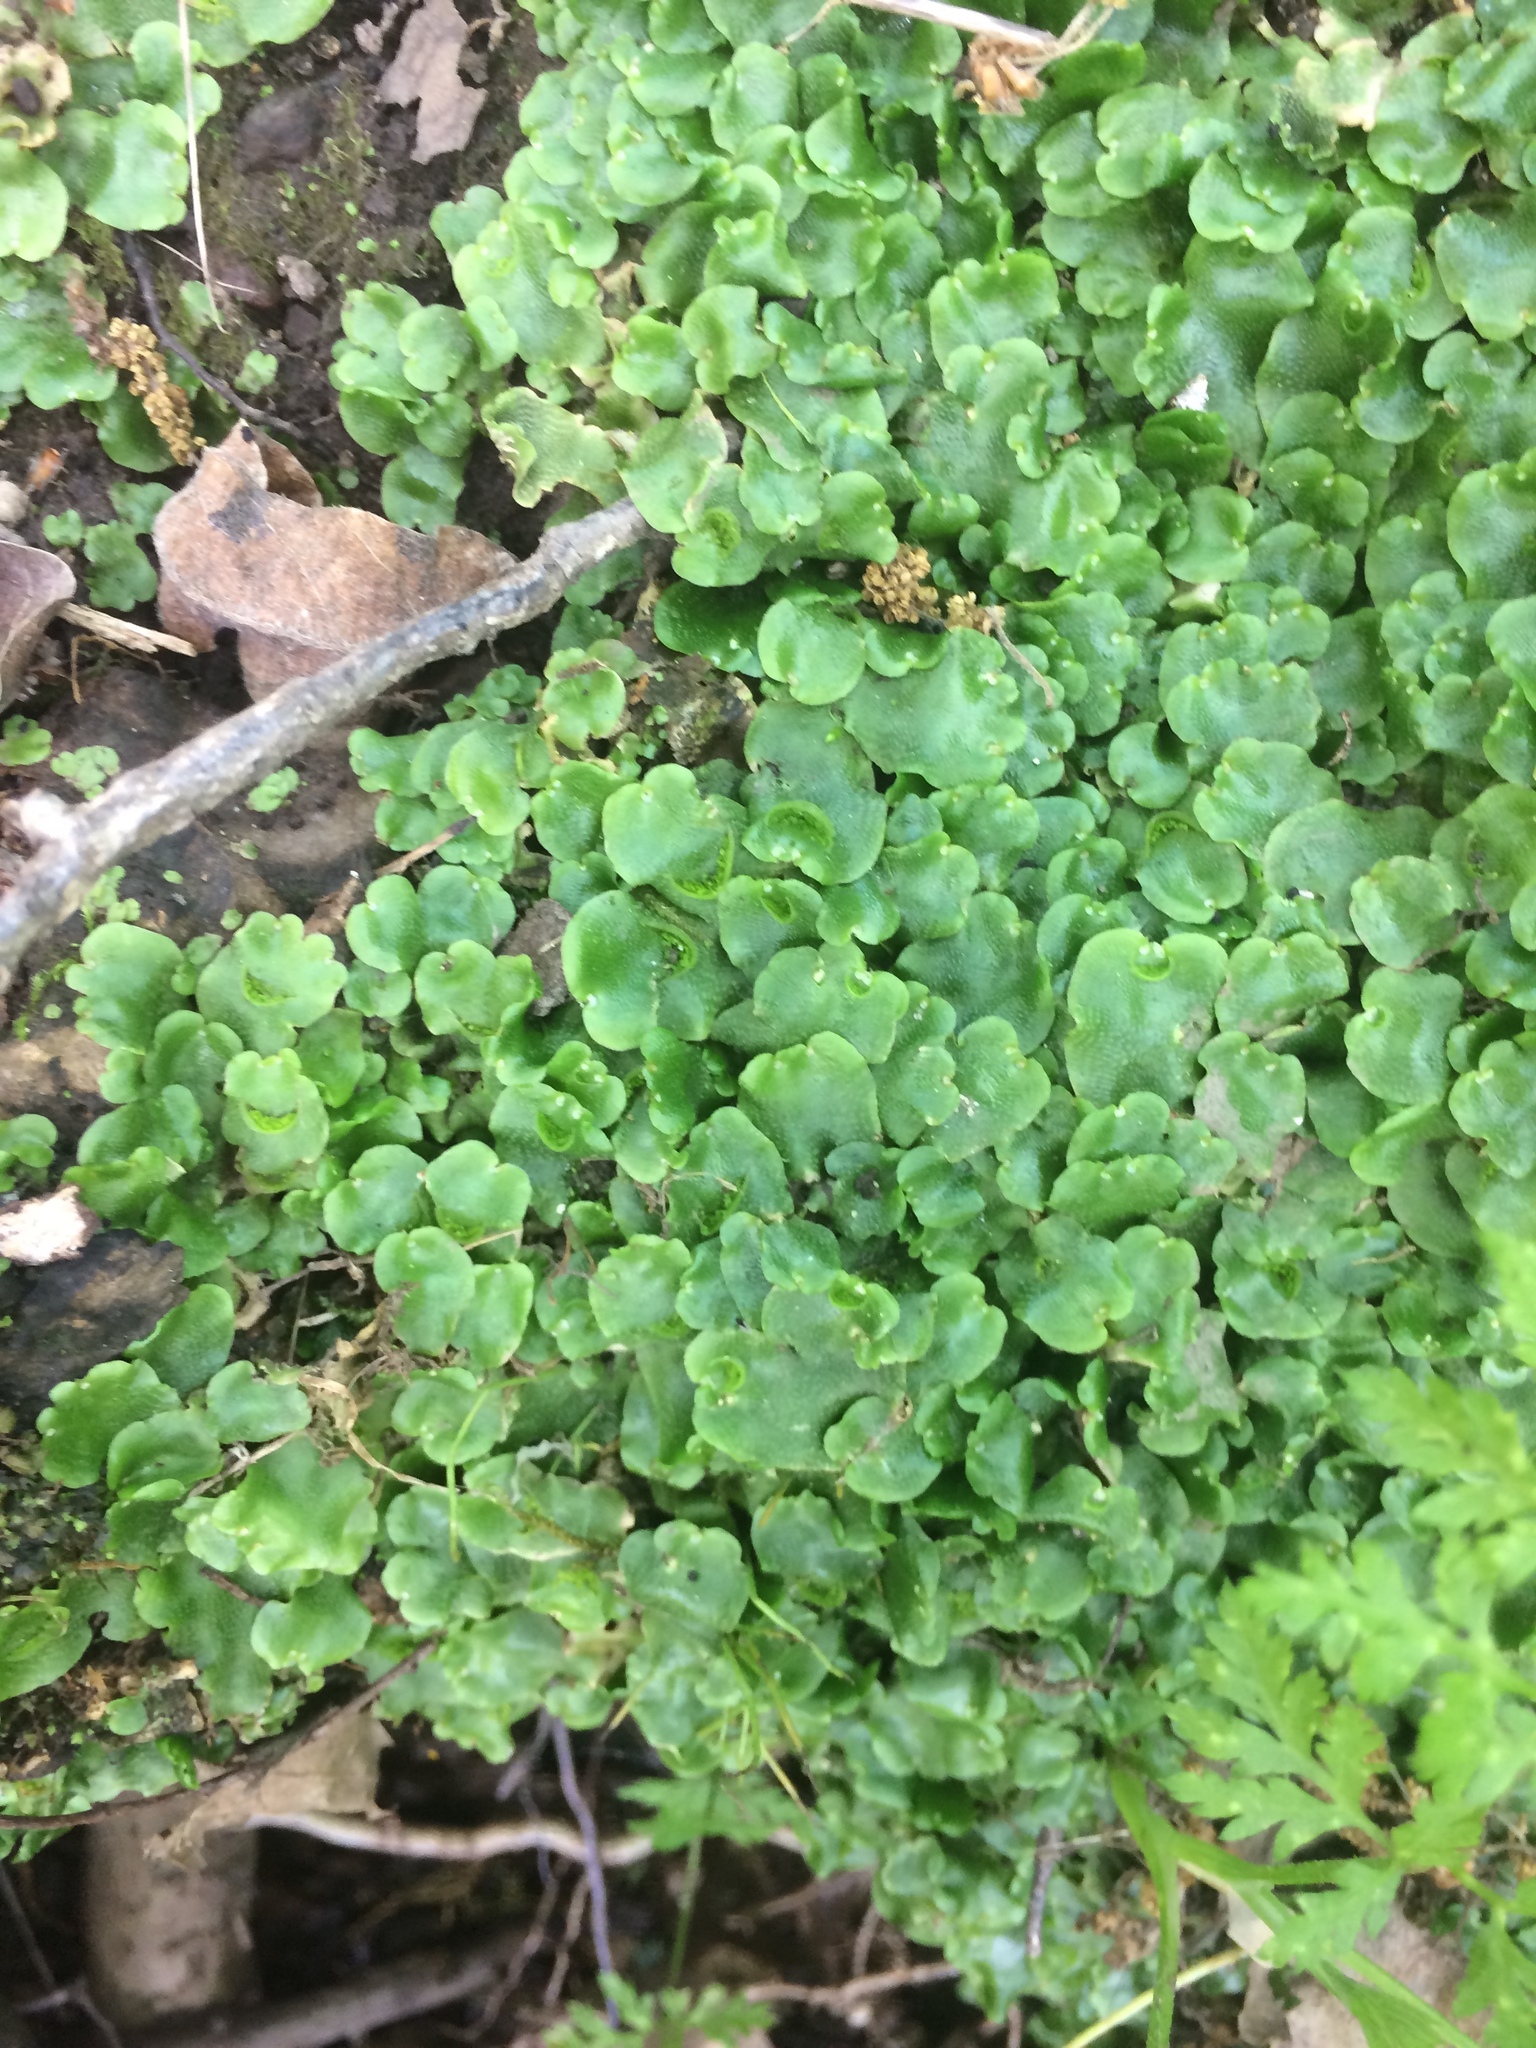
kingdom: Plantae
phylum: Marchantiophyta
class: Marchantiopsida
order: Lunulariales
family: Lunulariaceae
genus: Lunularia
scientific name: Lunularia cruciata
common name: Crescent-cup liverwort
